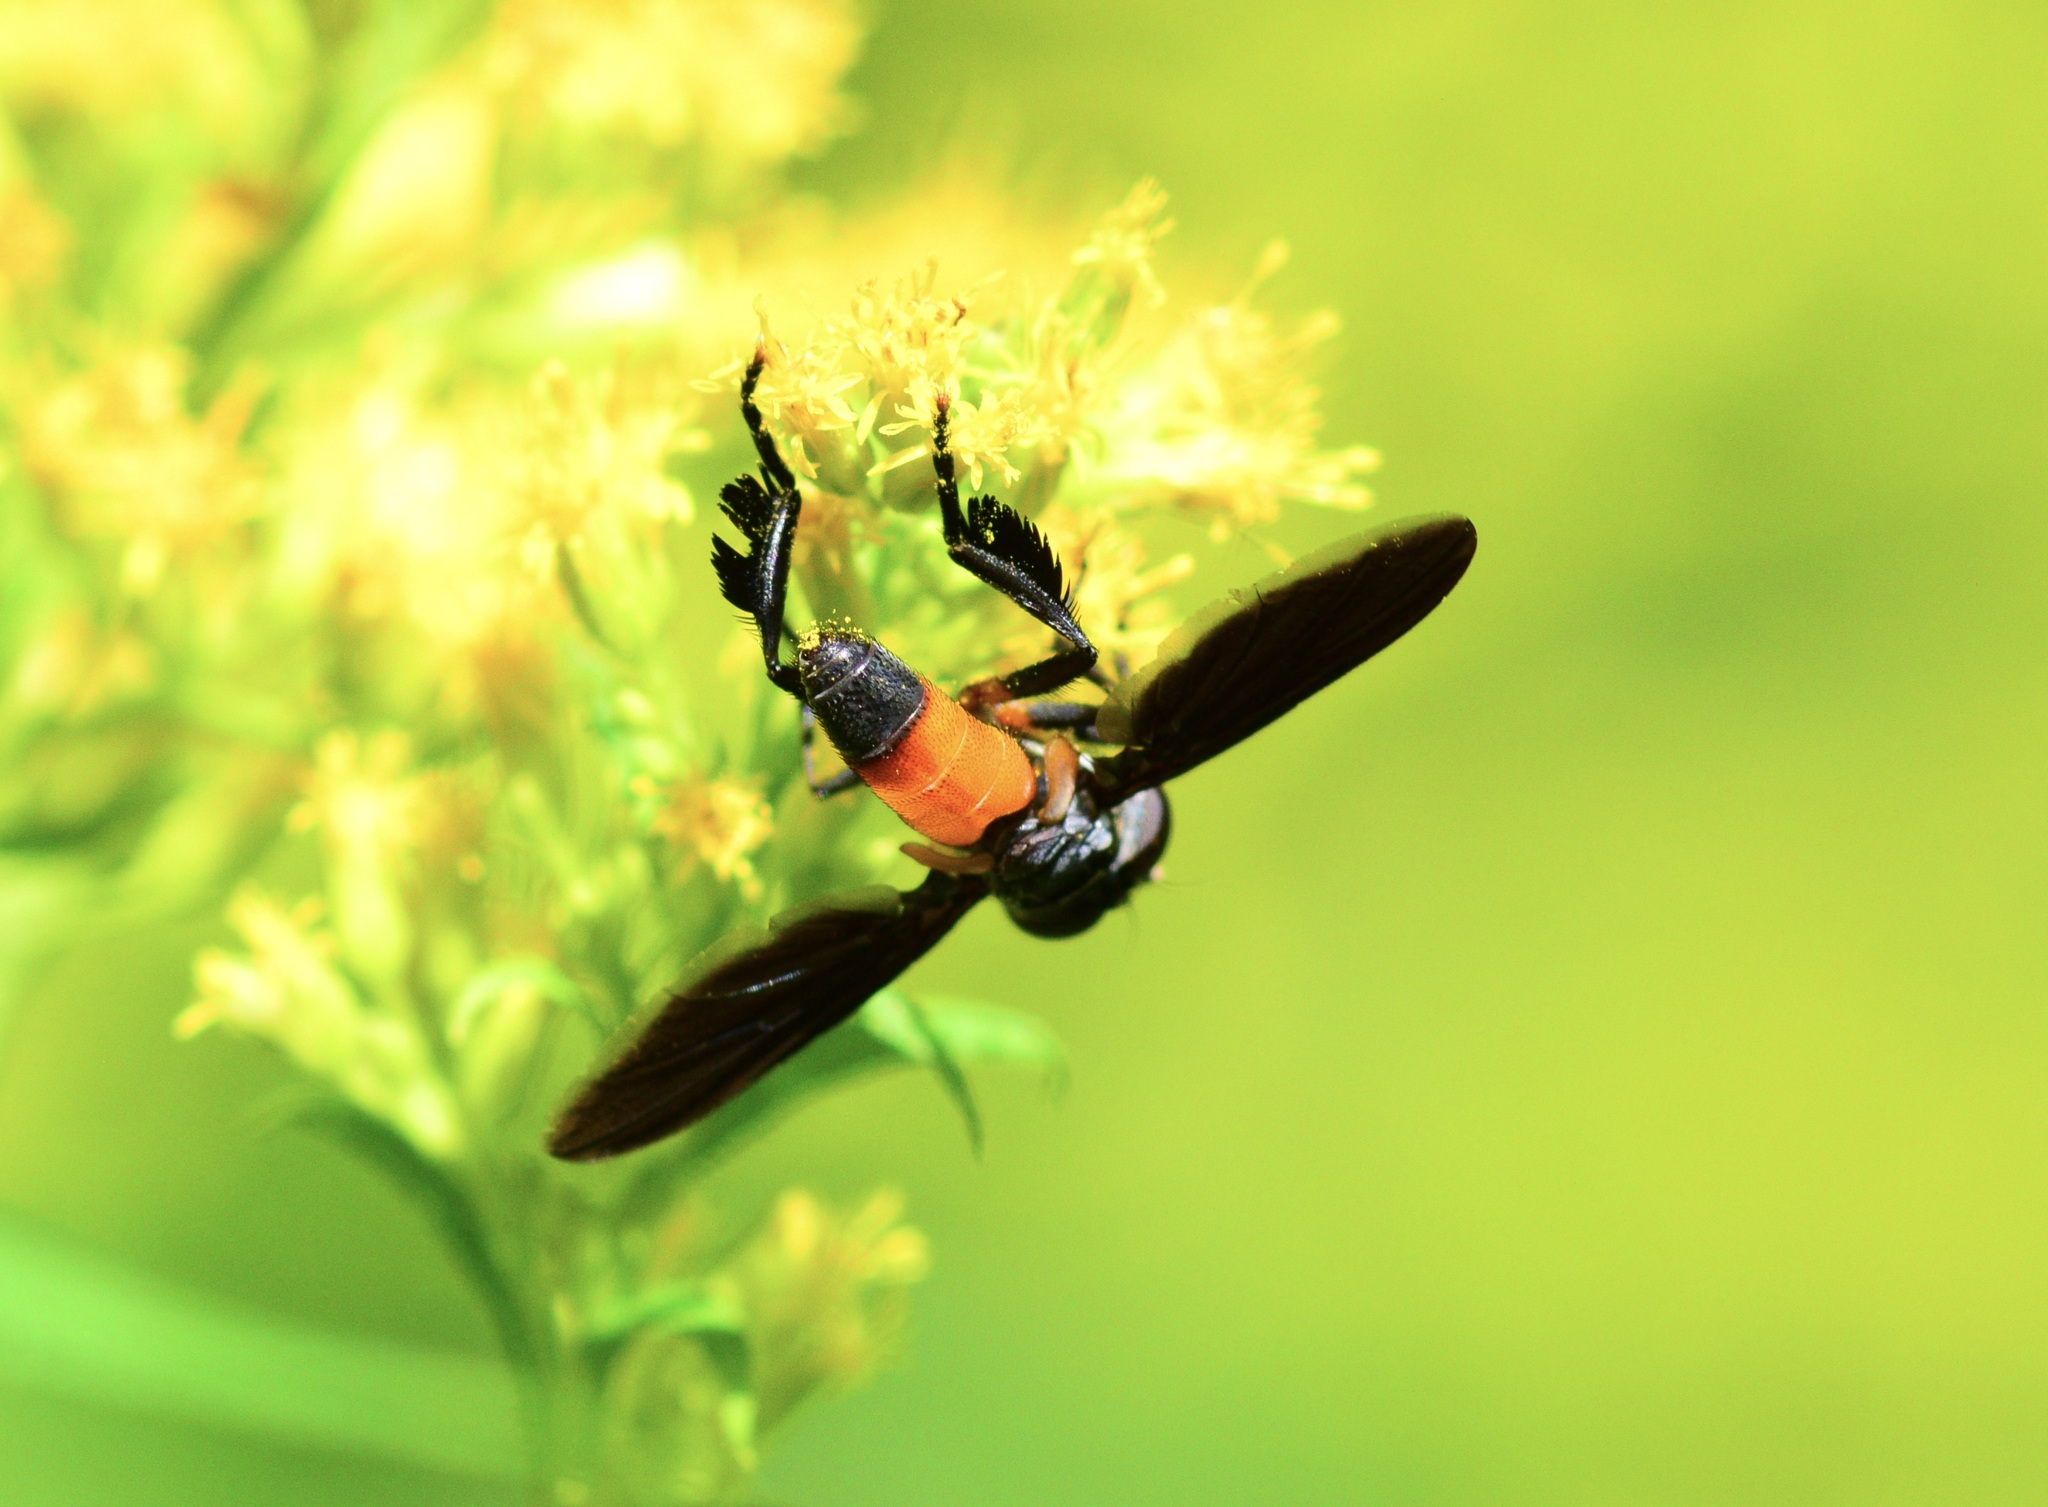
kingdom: Animalia
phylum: Arthropoda
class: Insecta
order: Diptera
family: Tachinidae
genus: Trichopoda
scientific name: Trichopoda pennipes
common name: Tachinid fly
